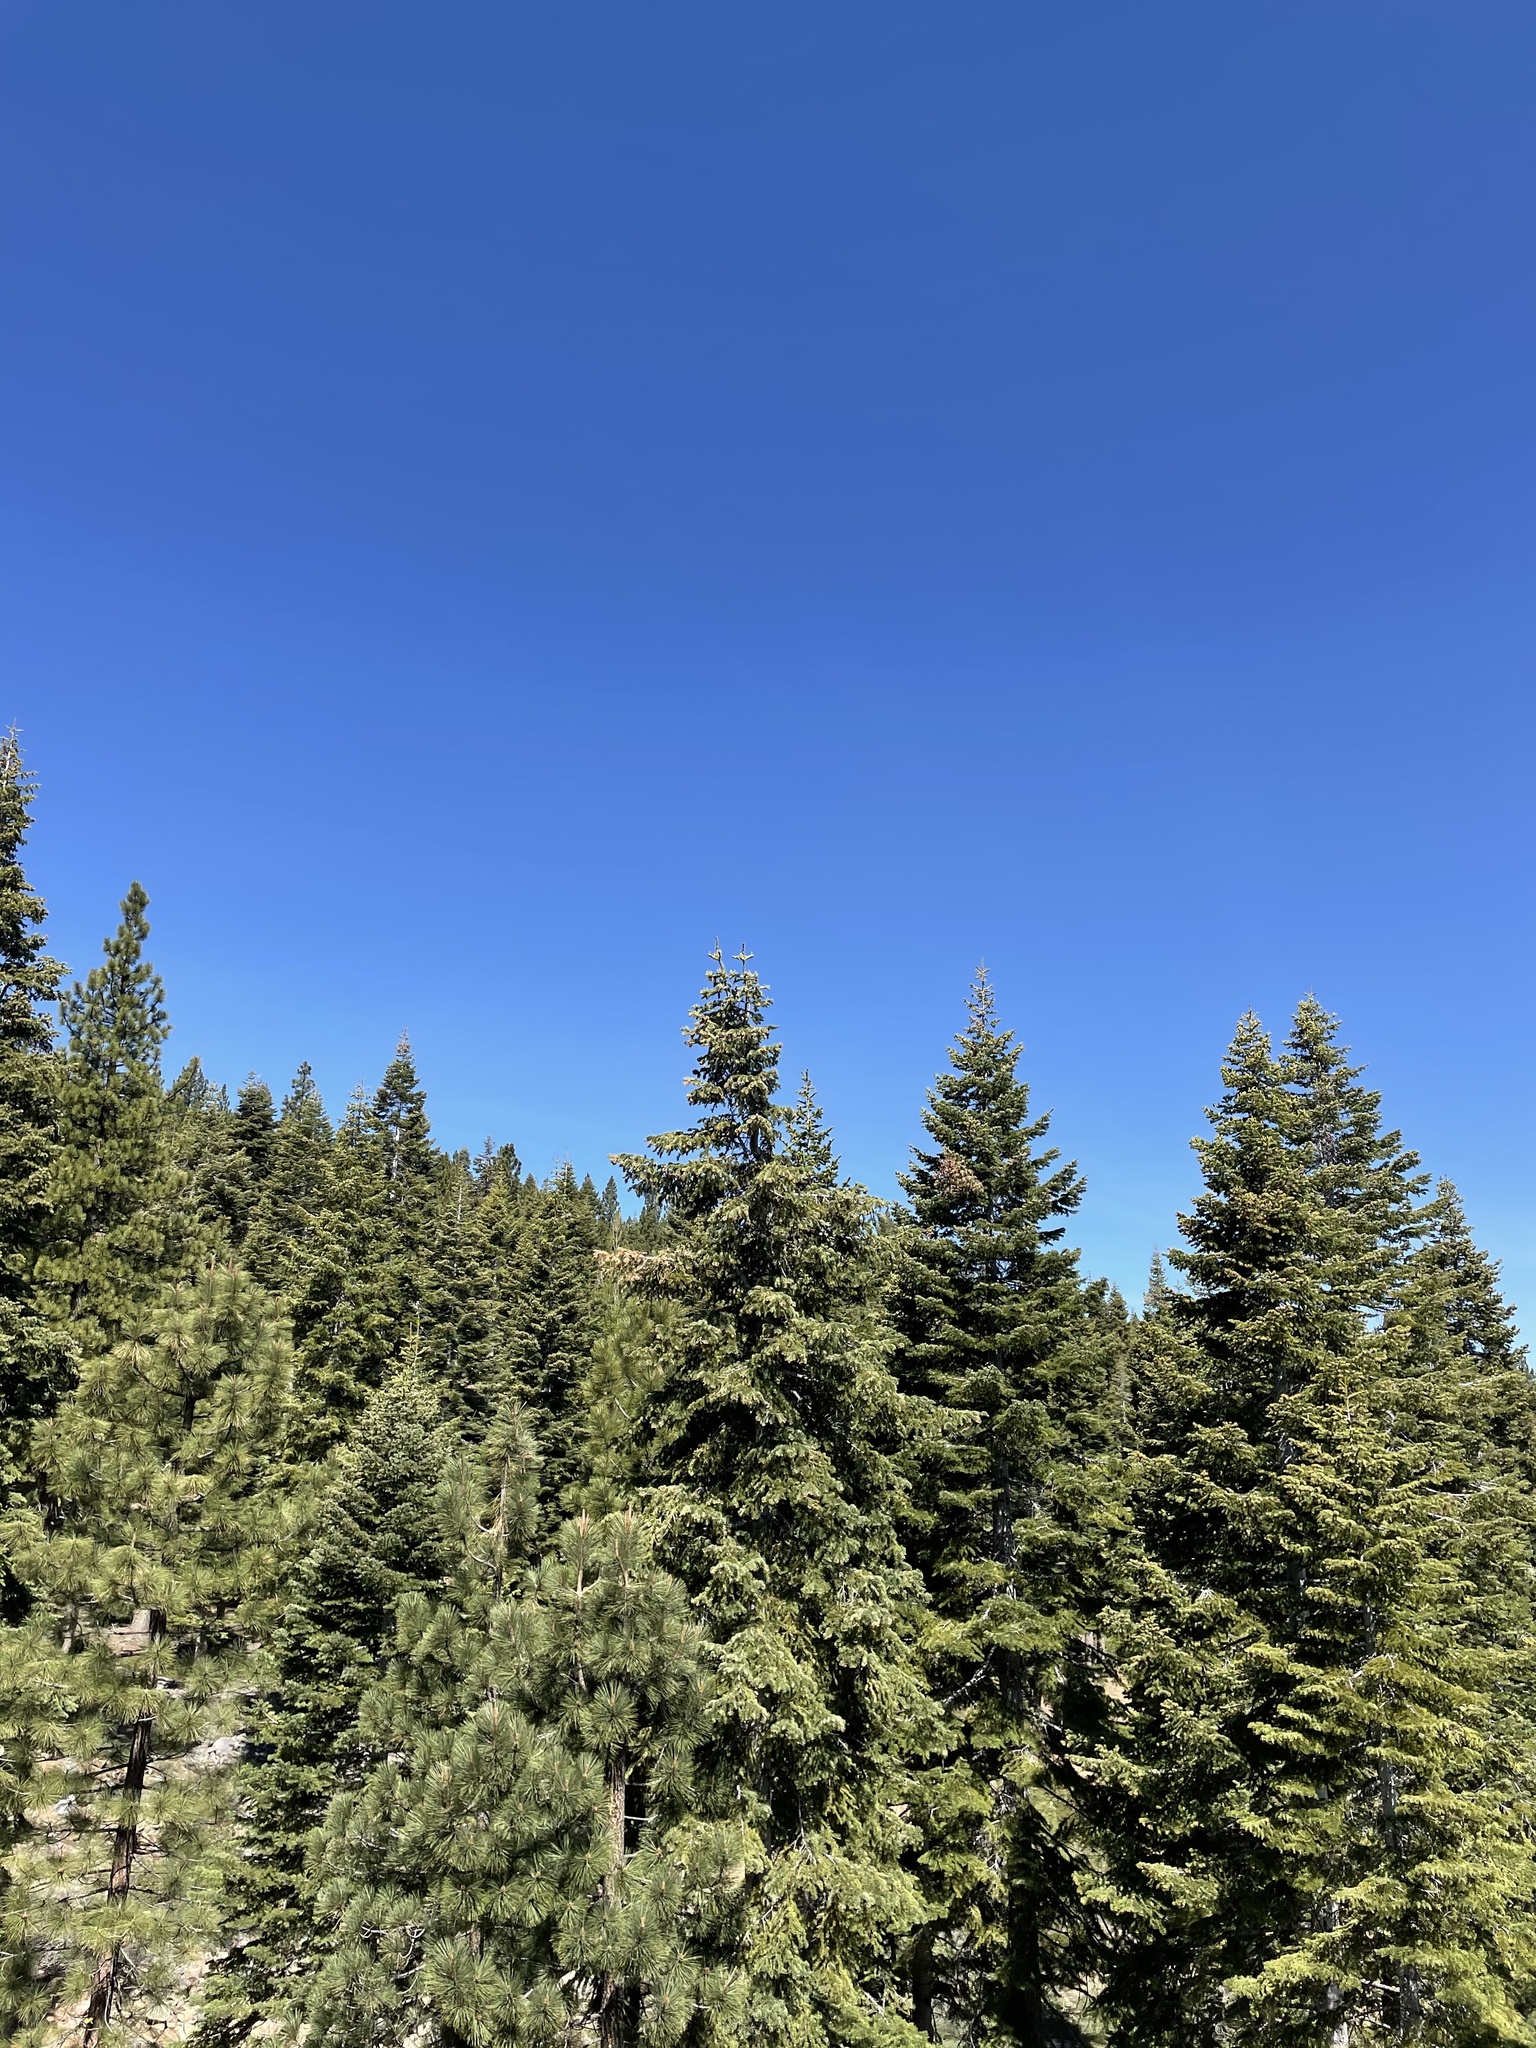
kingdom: Plantae
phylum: Tracheophyta
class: Pinopsida
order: Pinales
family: Pinaceae
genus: Abies
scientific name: Abies concolor
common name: Colorado fir
